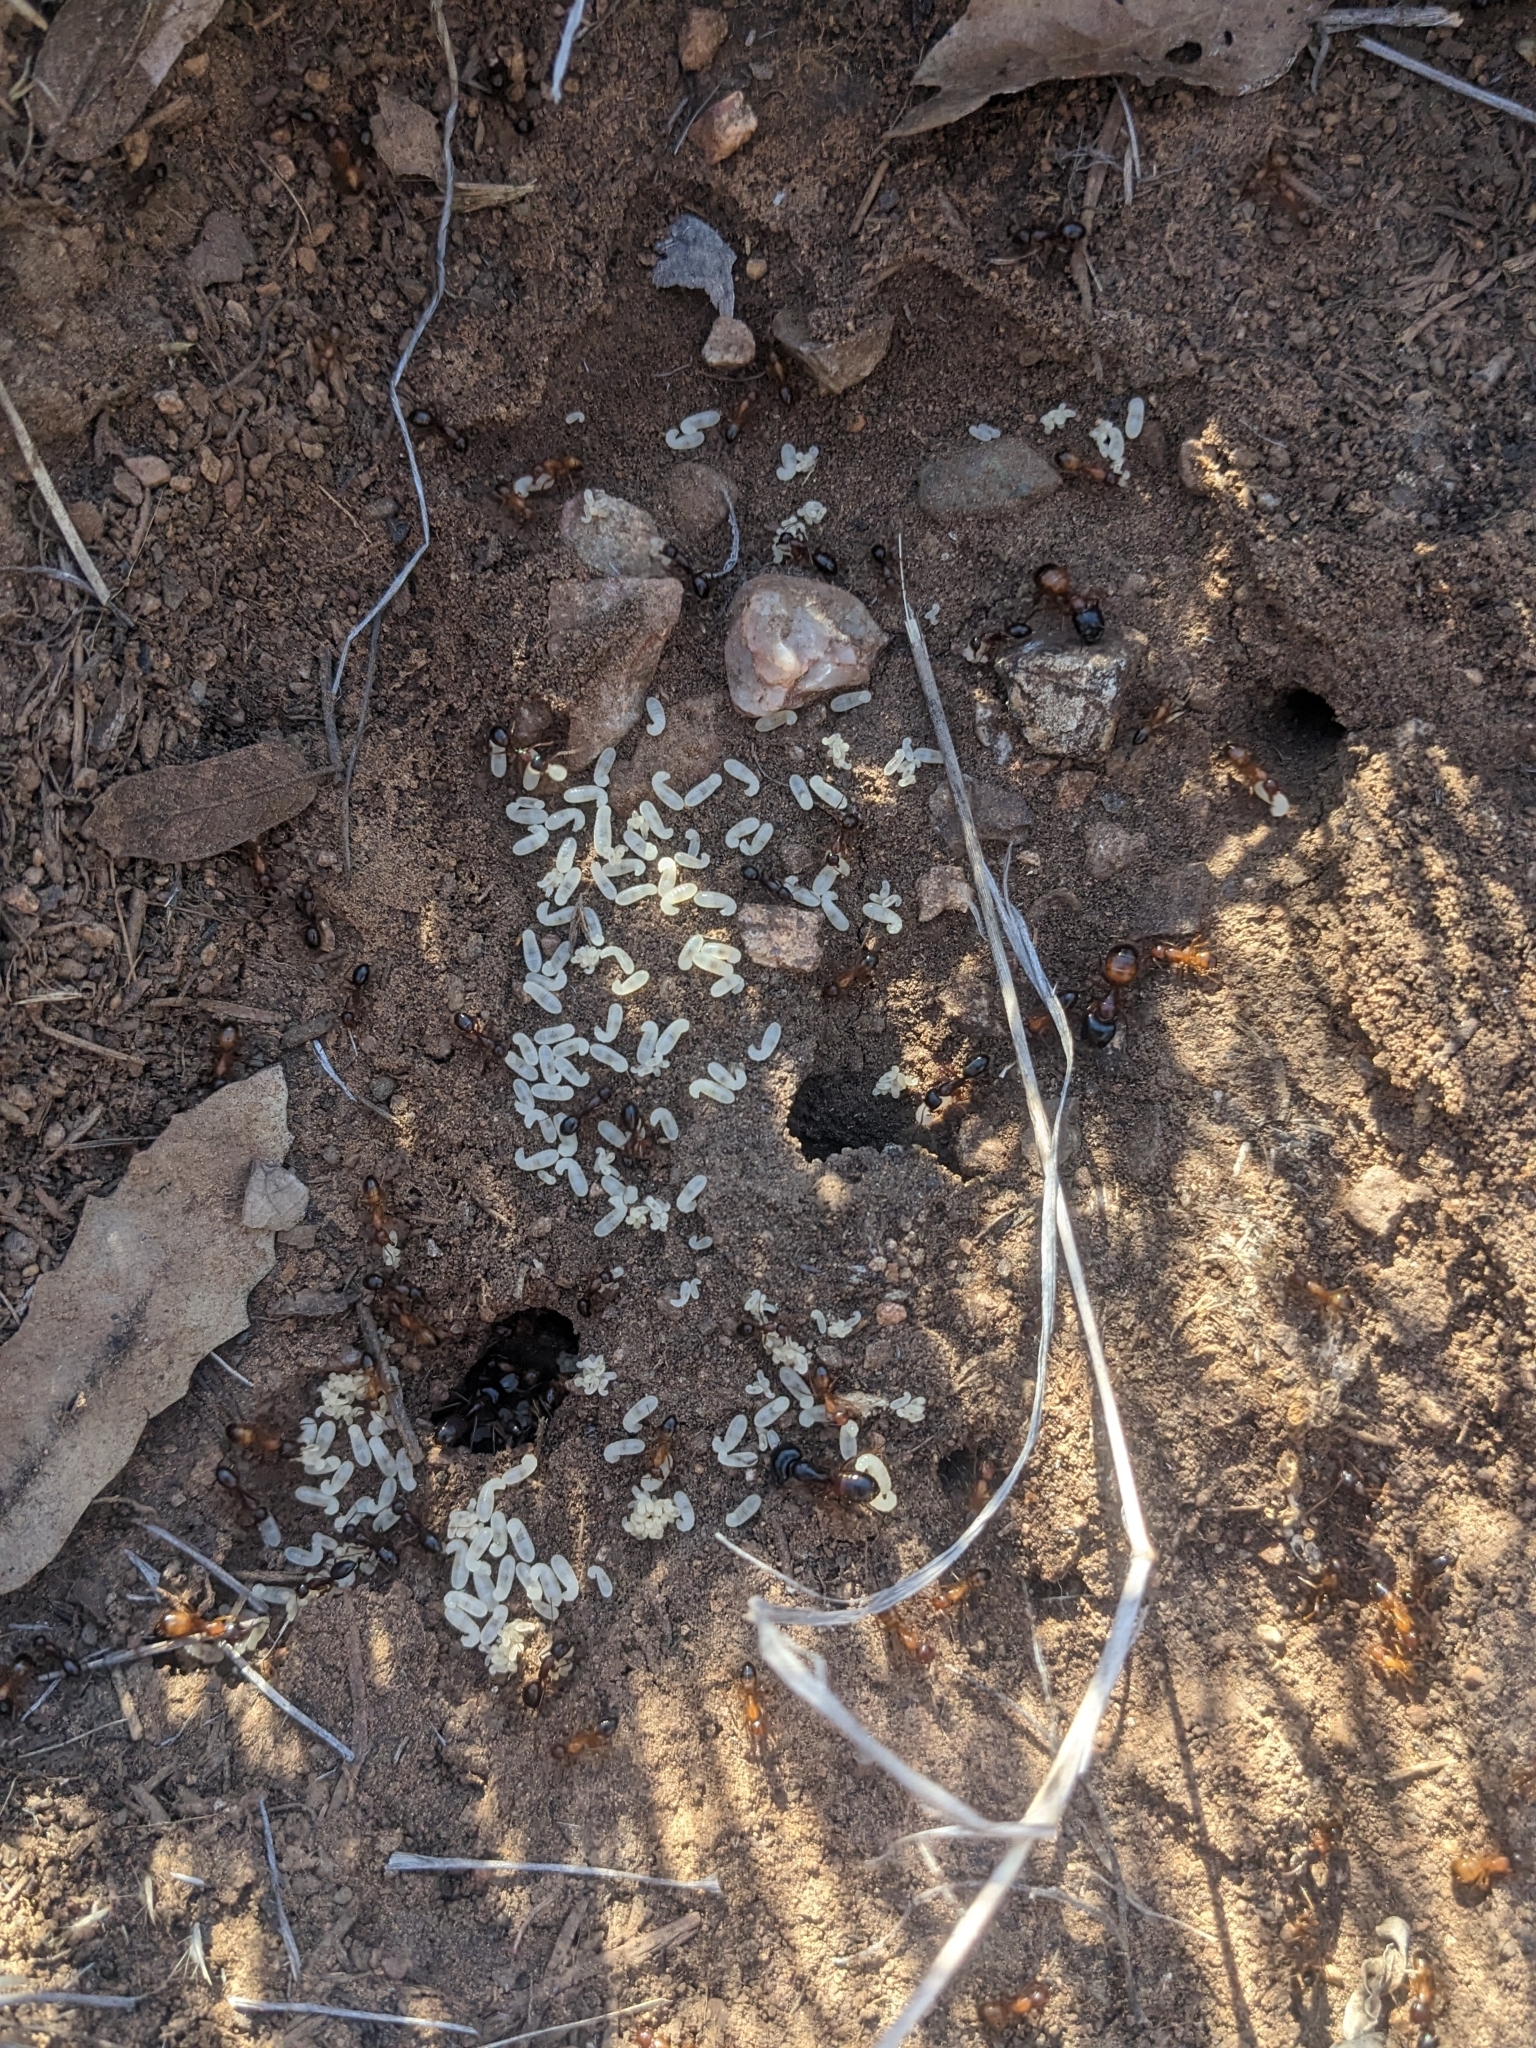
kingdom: Animalia
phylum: Arthropoda
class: Insecta
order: Hymenoptera
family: Formicidae
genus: Camponotus
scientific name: Camponotus sansabeanus
